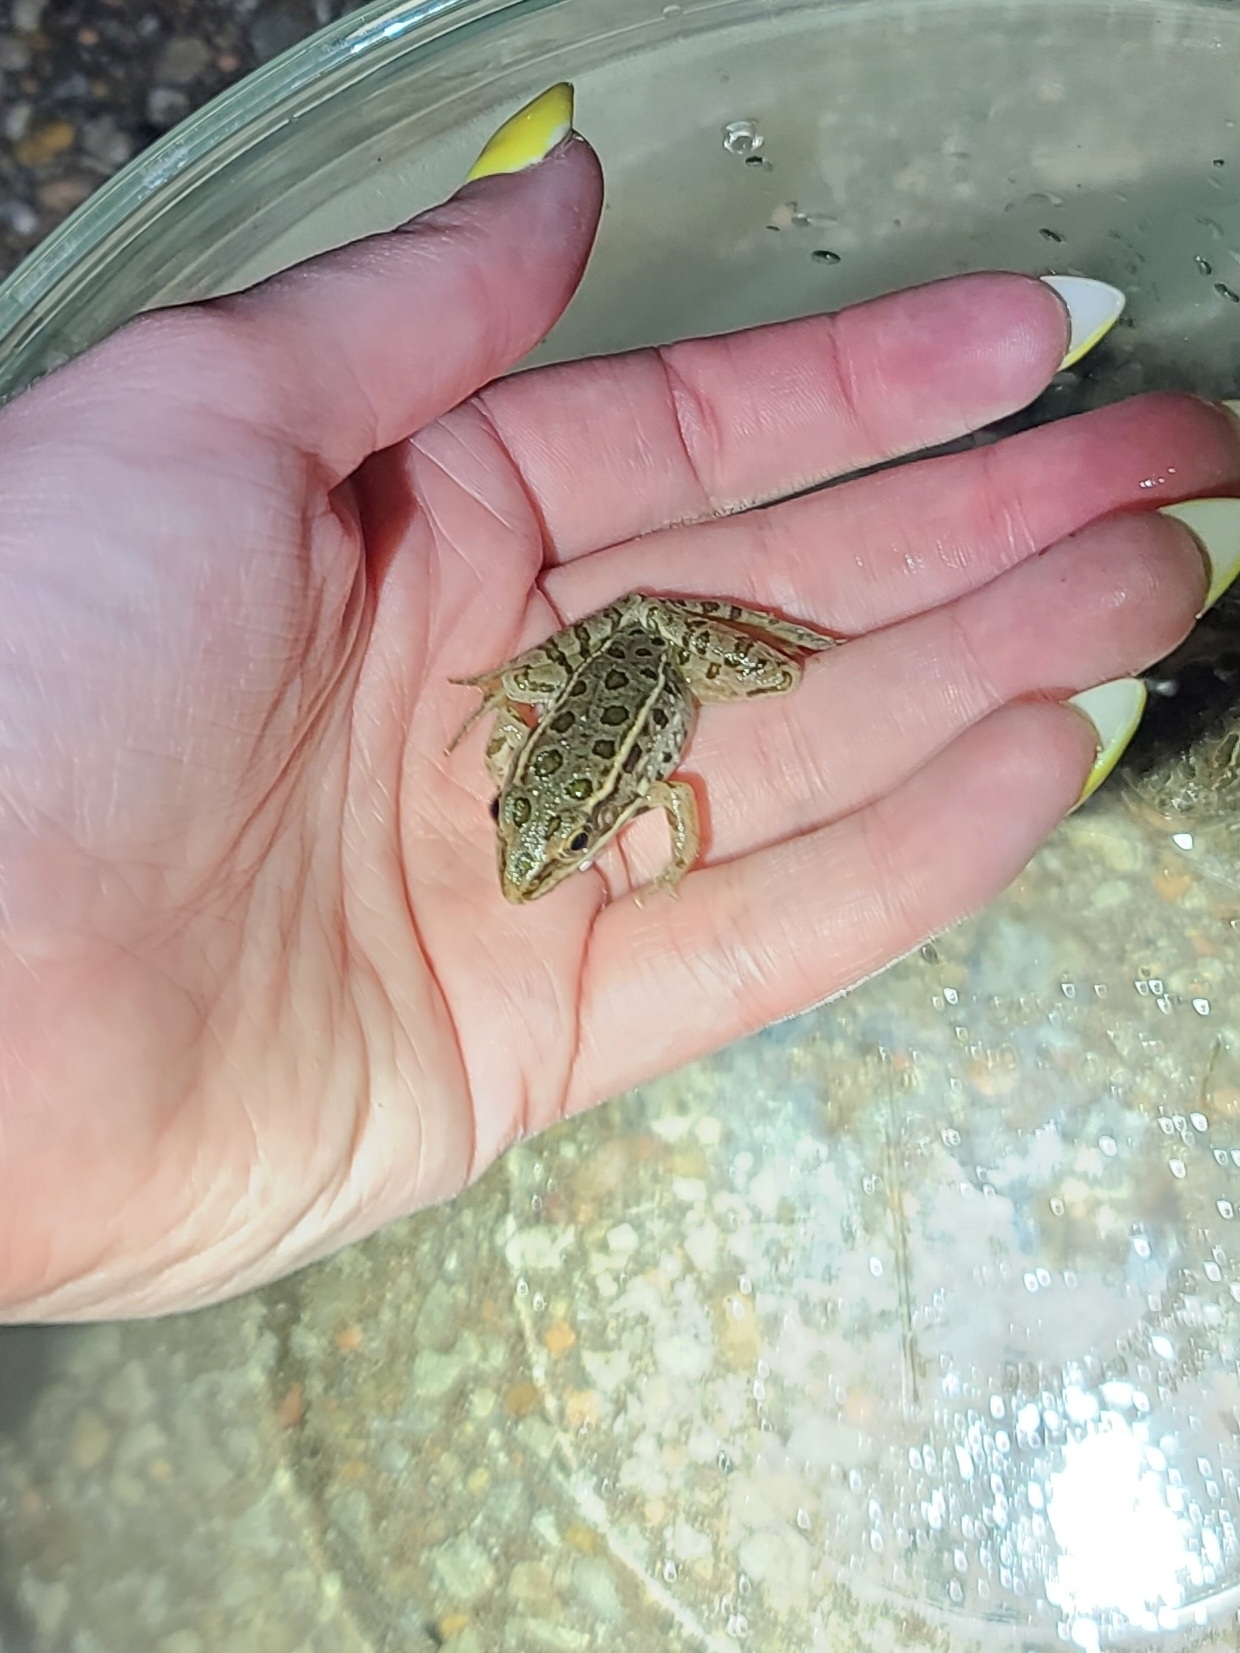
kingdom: Animalia
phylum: Chordata
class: Amphibia
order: Anura
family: Ranidae
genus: Lithobates
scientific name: Lithobates blairi
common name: Plains leopard frog
